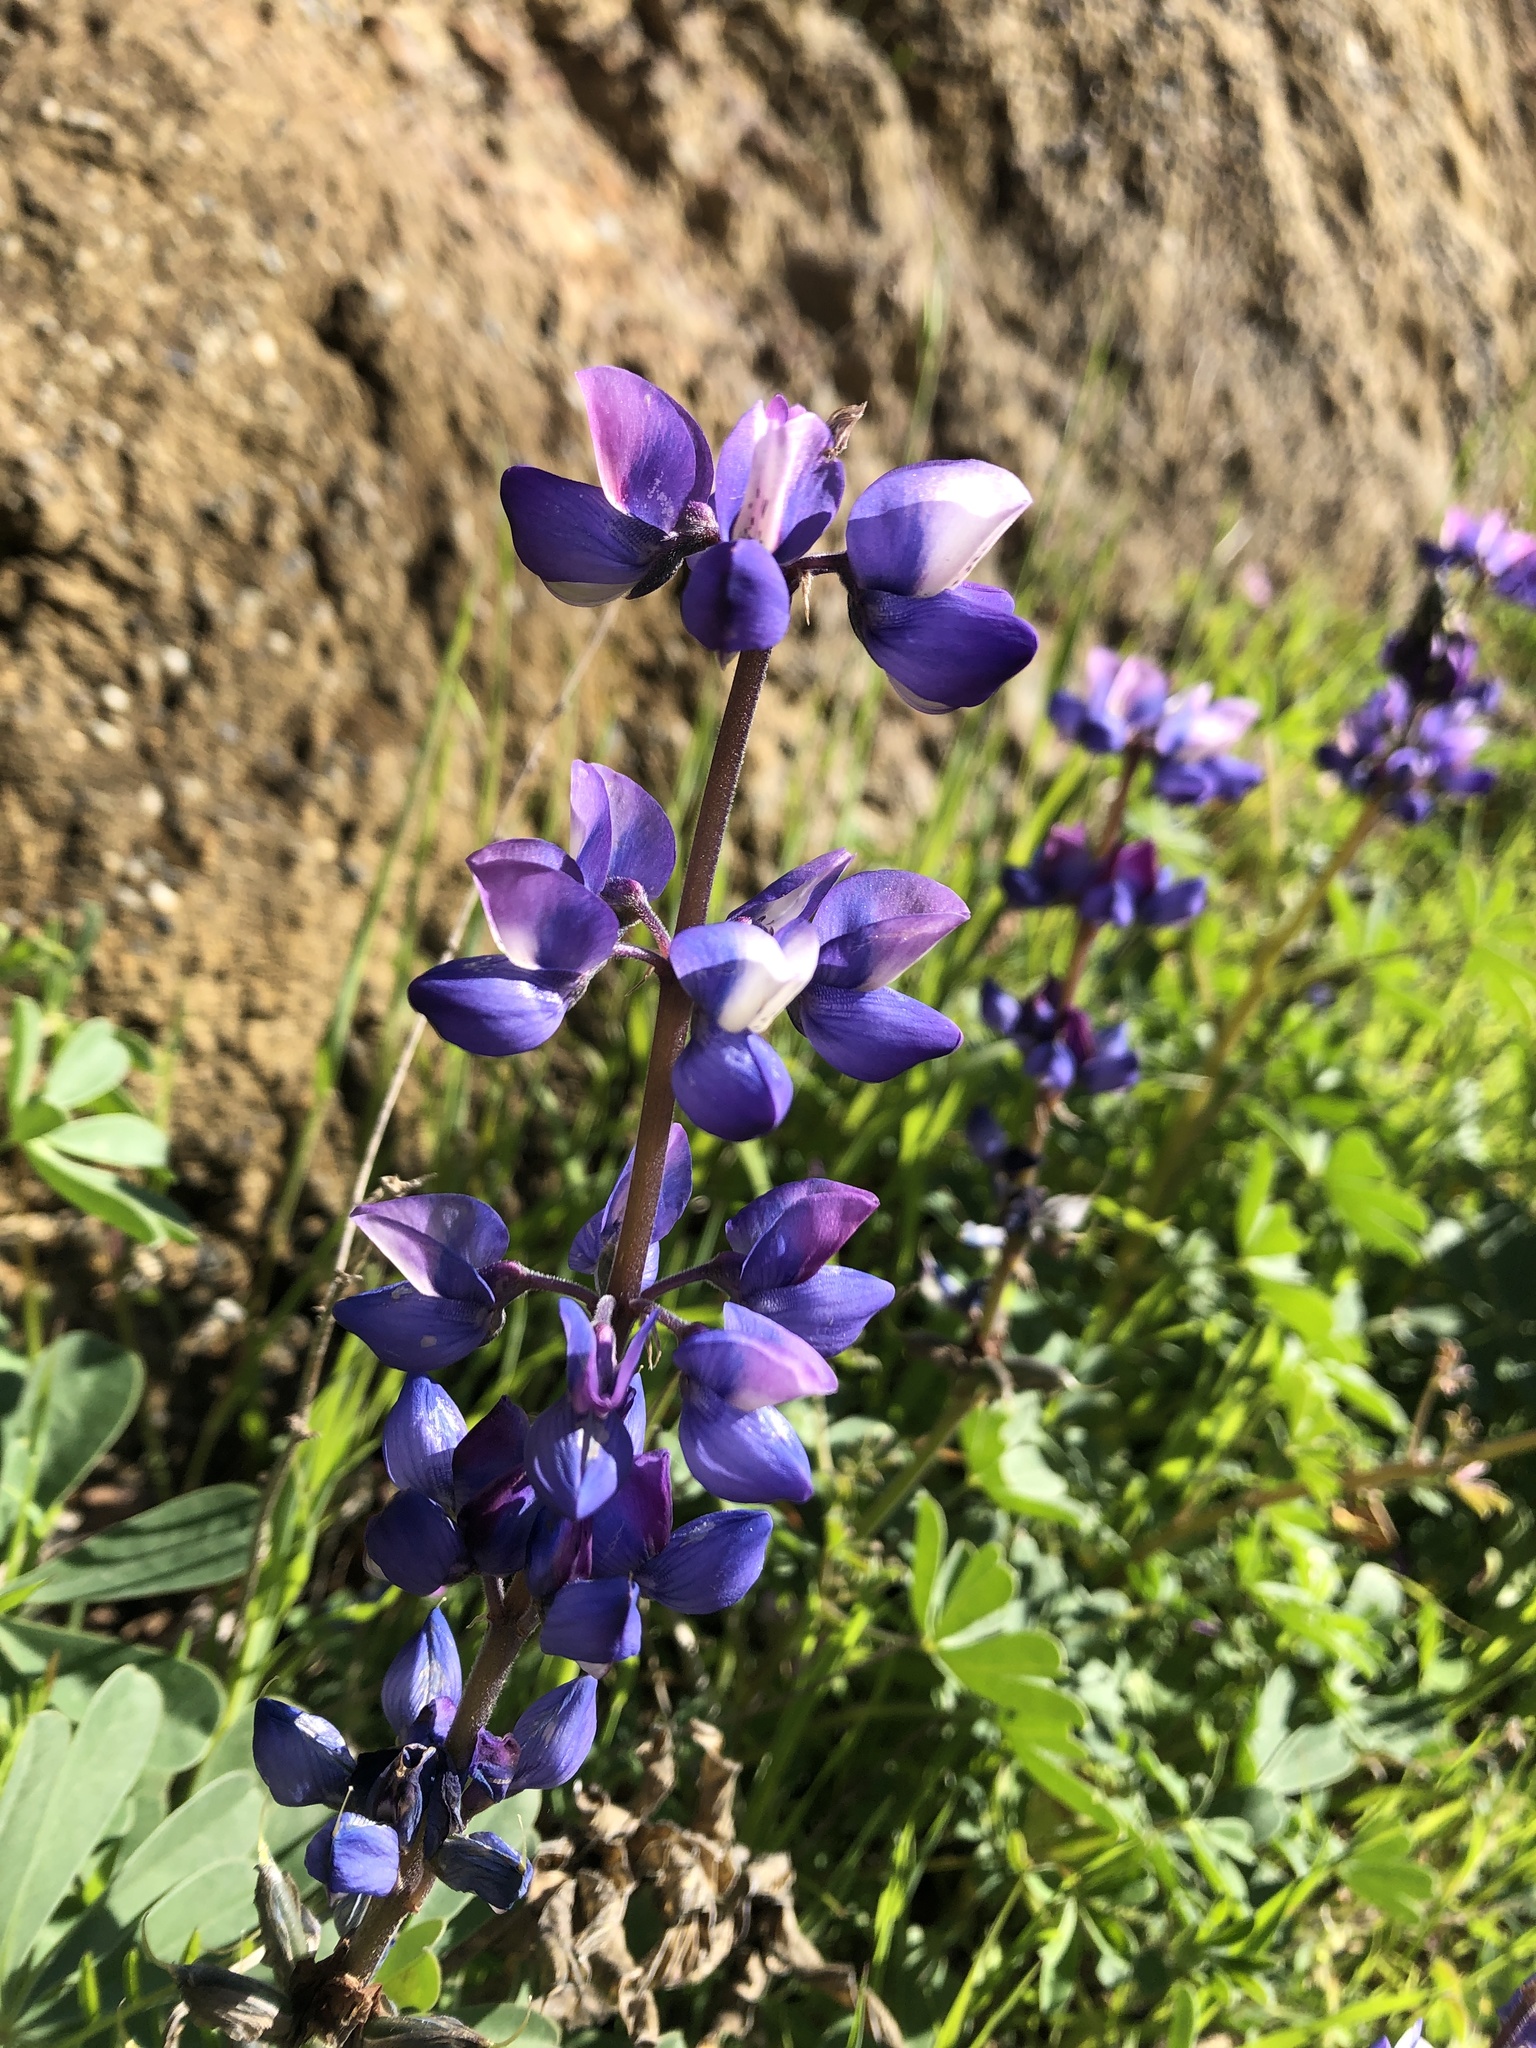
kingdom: Plantae
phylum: Tracheophyta
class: Magnoliopsida
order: Fabales
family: Fabaceae
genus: Lupinus
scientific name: Lupinus succulentus
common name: Arroyo lupine
